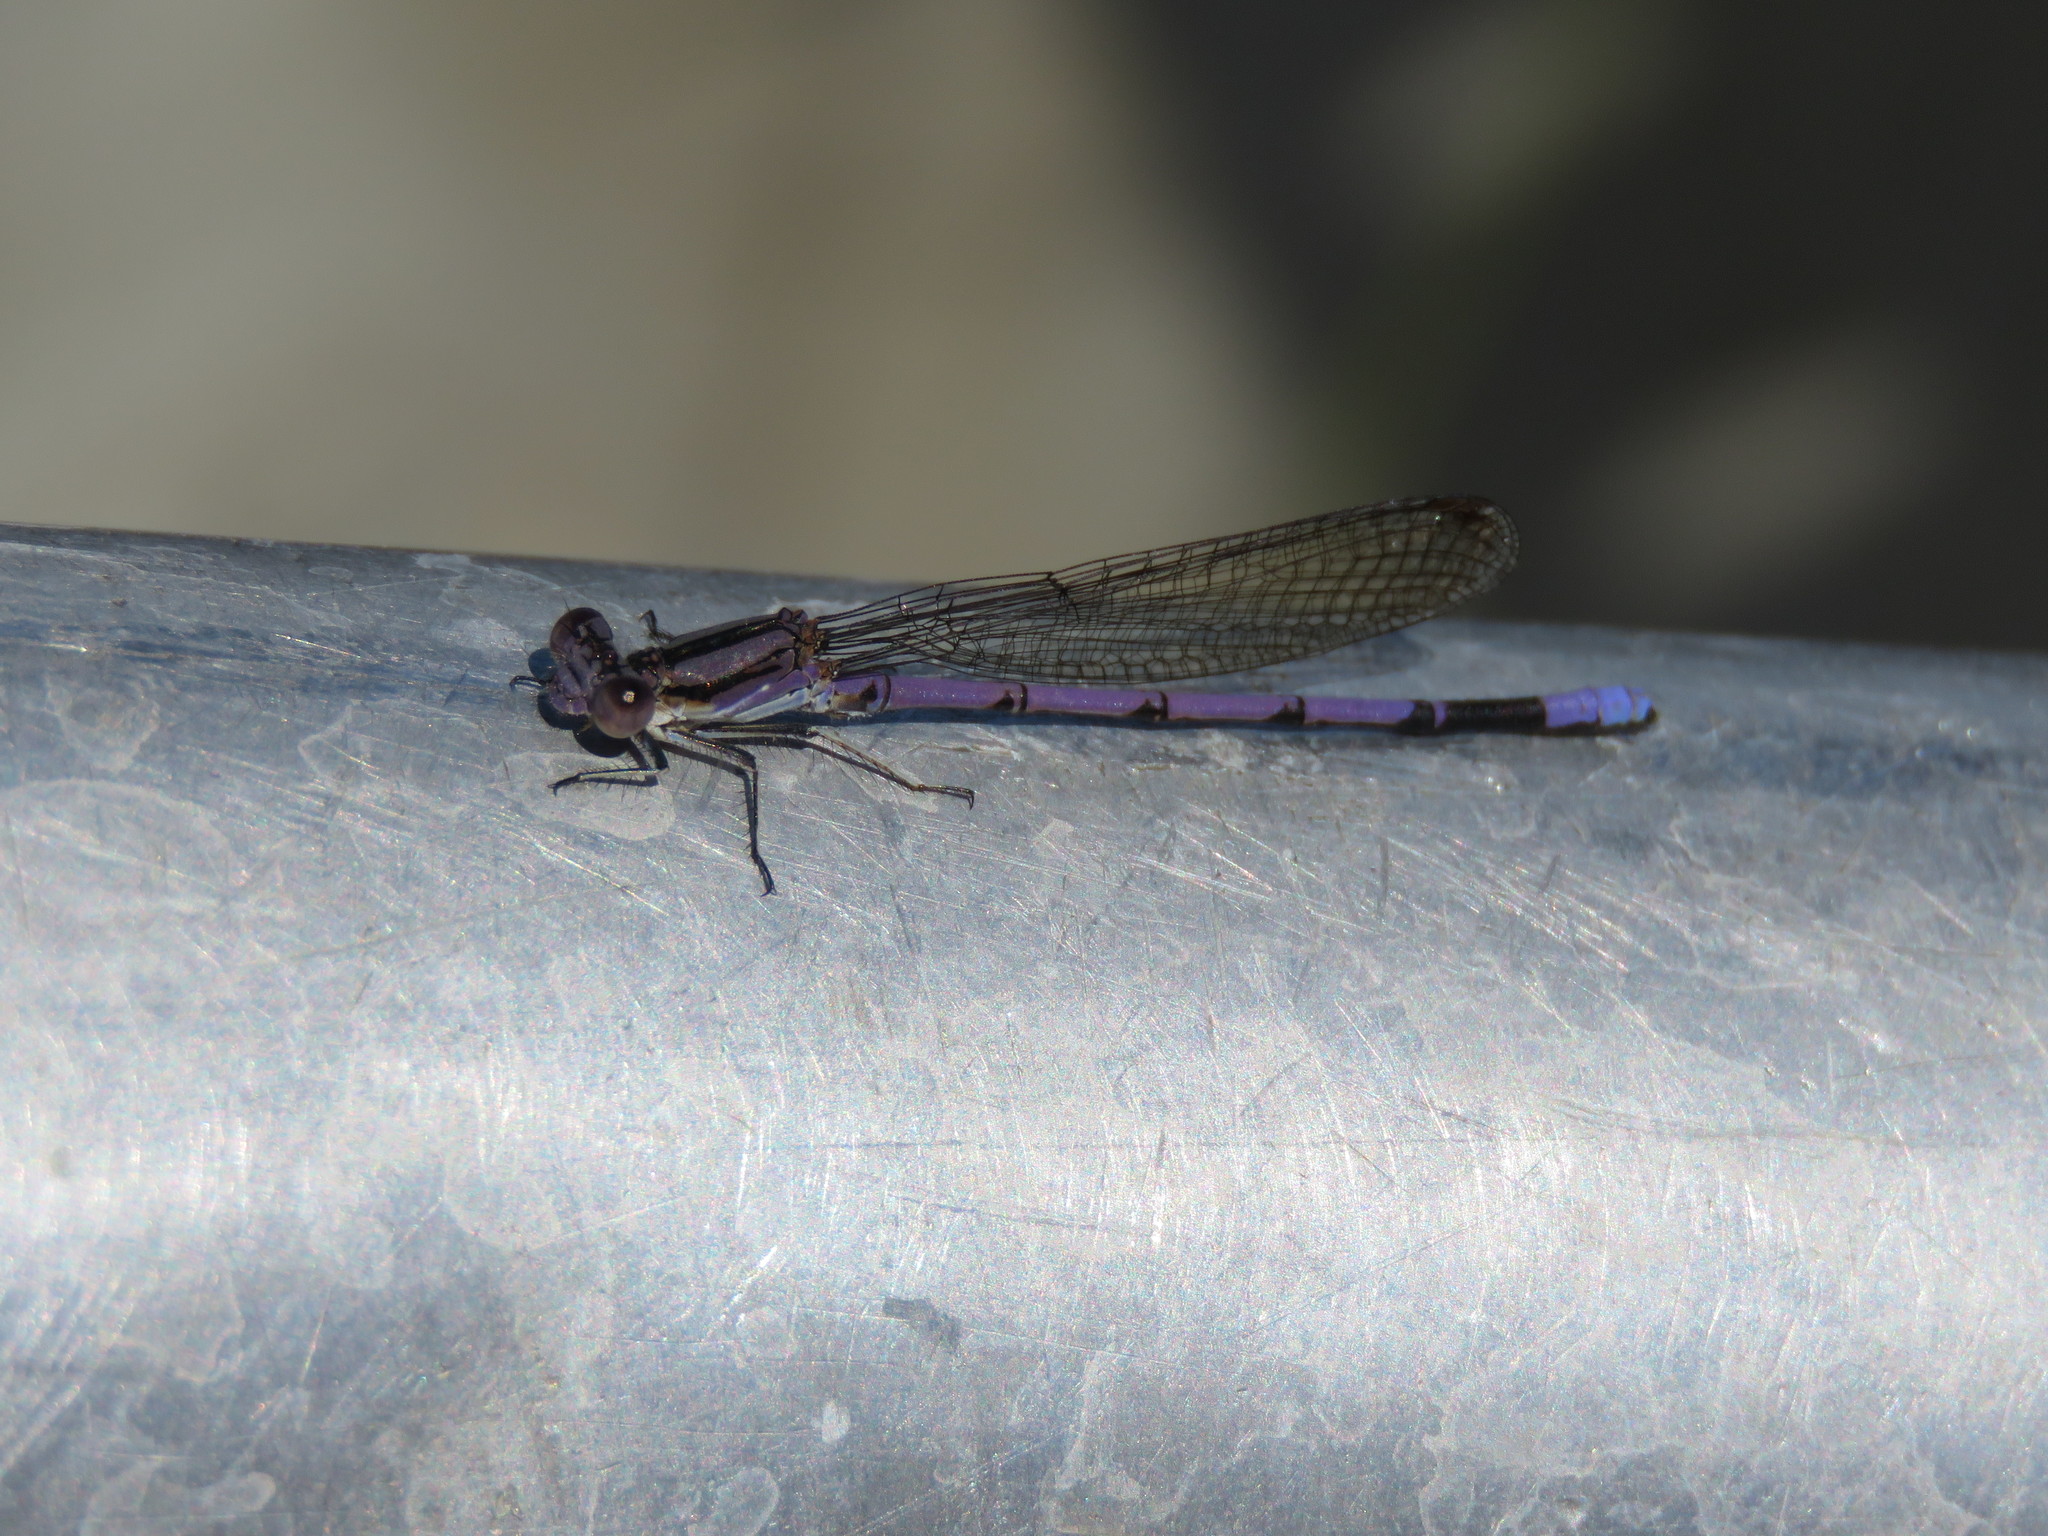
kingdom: Animalia
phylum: Arthropoda
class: Insecta
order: Odonata
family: Coenagrionidae
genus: Argia
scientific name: Argia fumipennis
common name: Variable dancer
